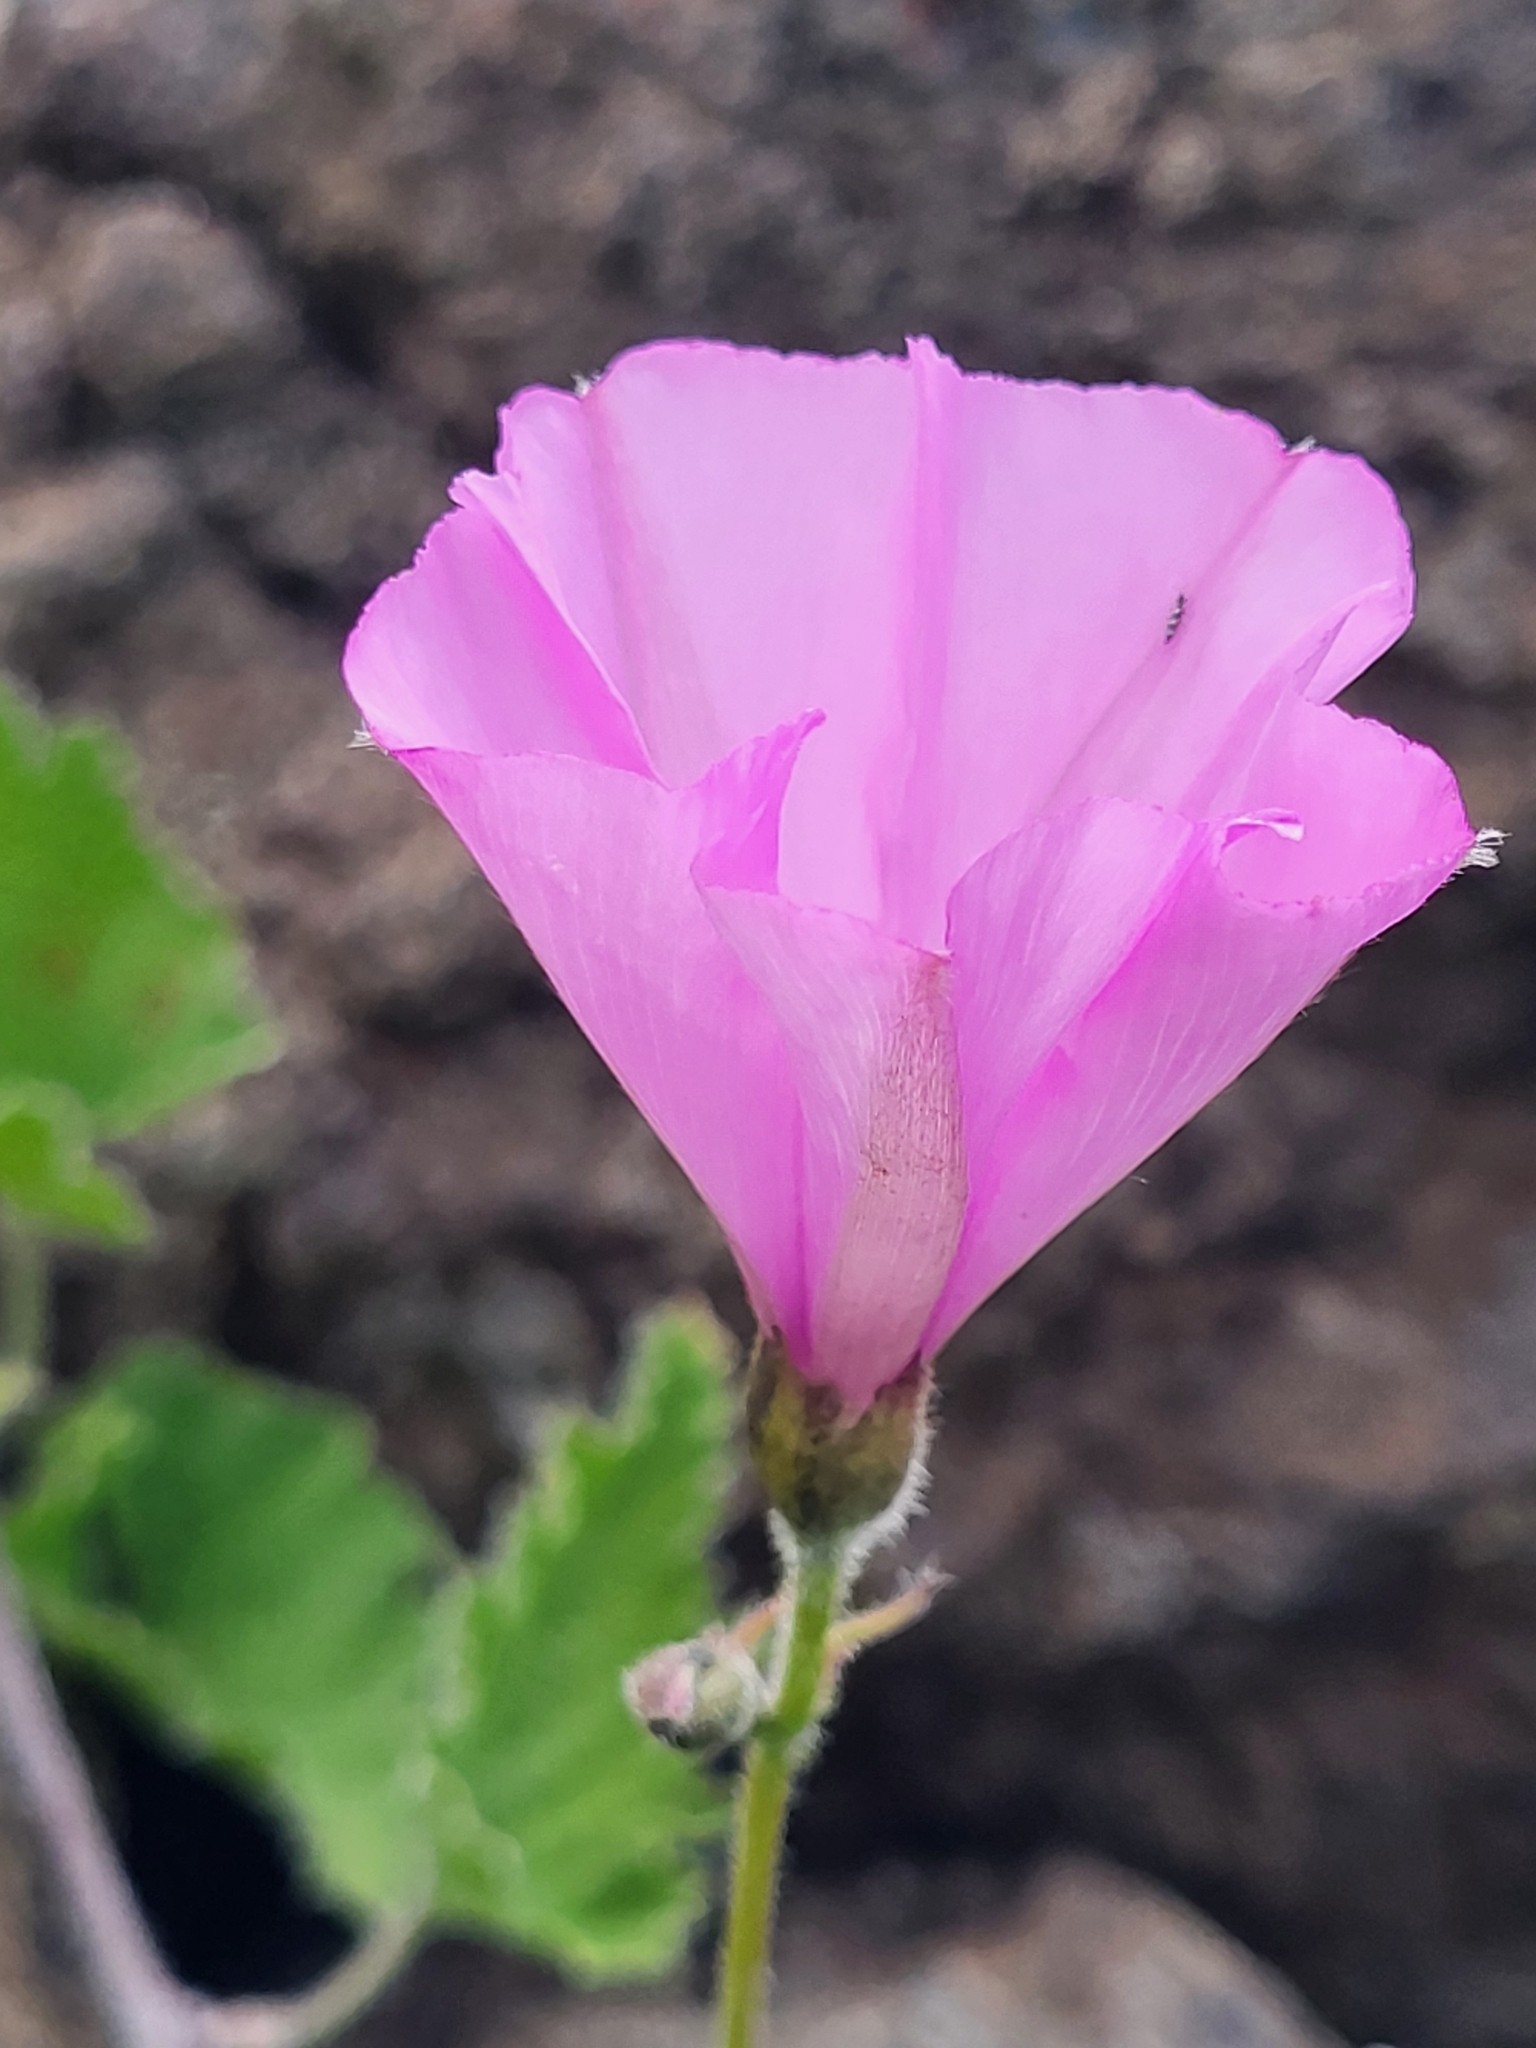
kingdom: Plantae
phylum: Tracheophyta
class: Magnoliopsida
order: Solanales
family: Convolvulaceae
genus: Convolvulus
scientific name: Convolvulus althaeoides
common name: Mallow bindweed
